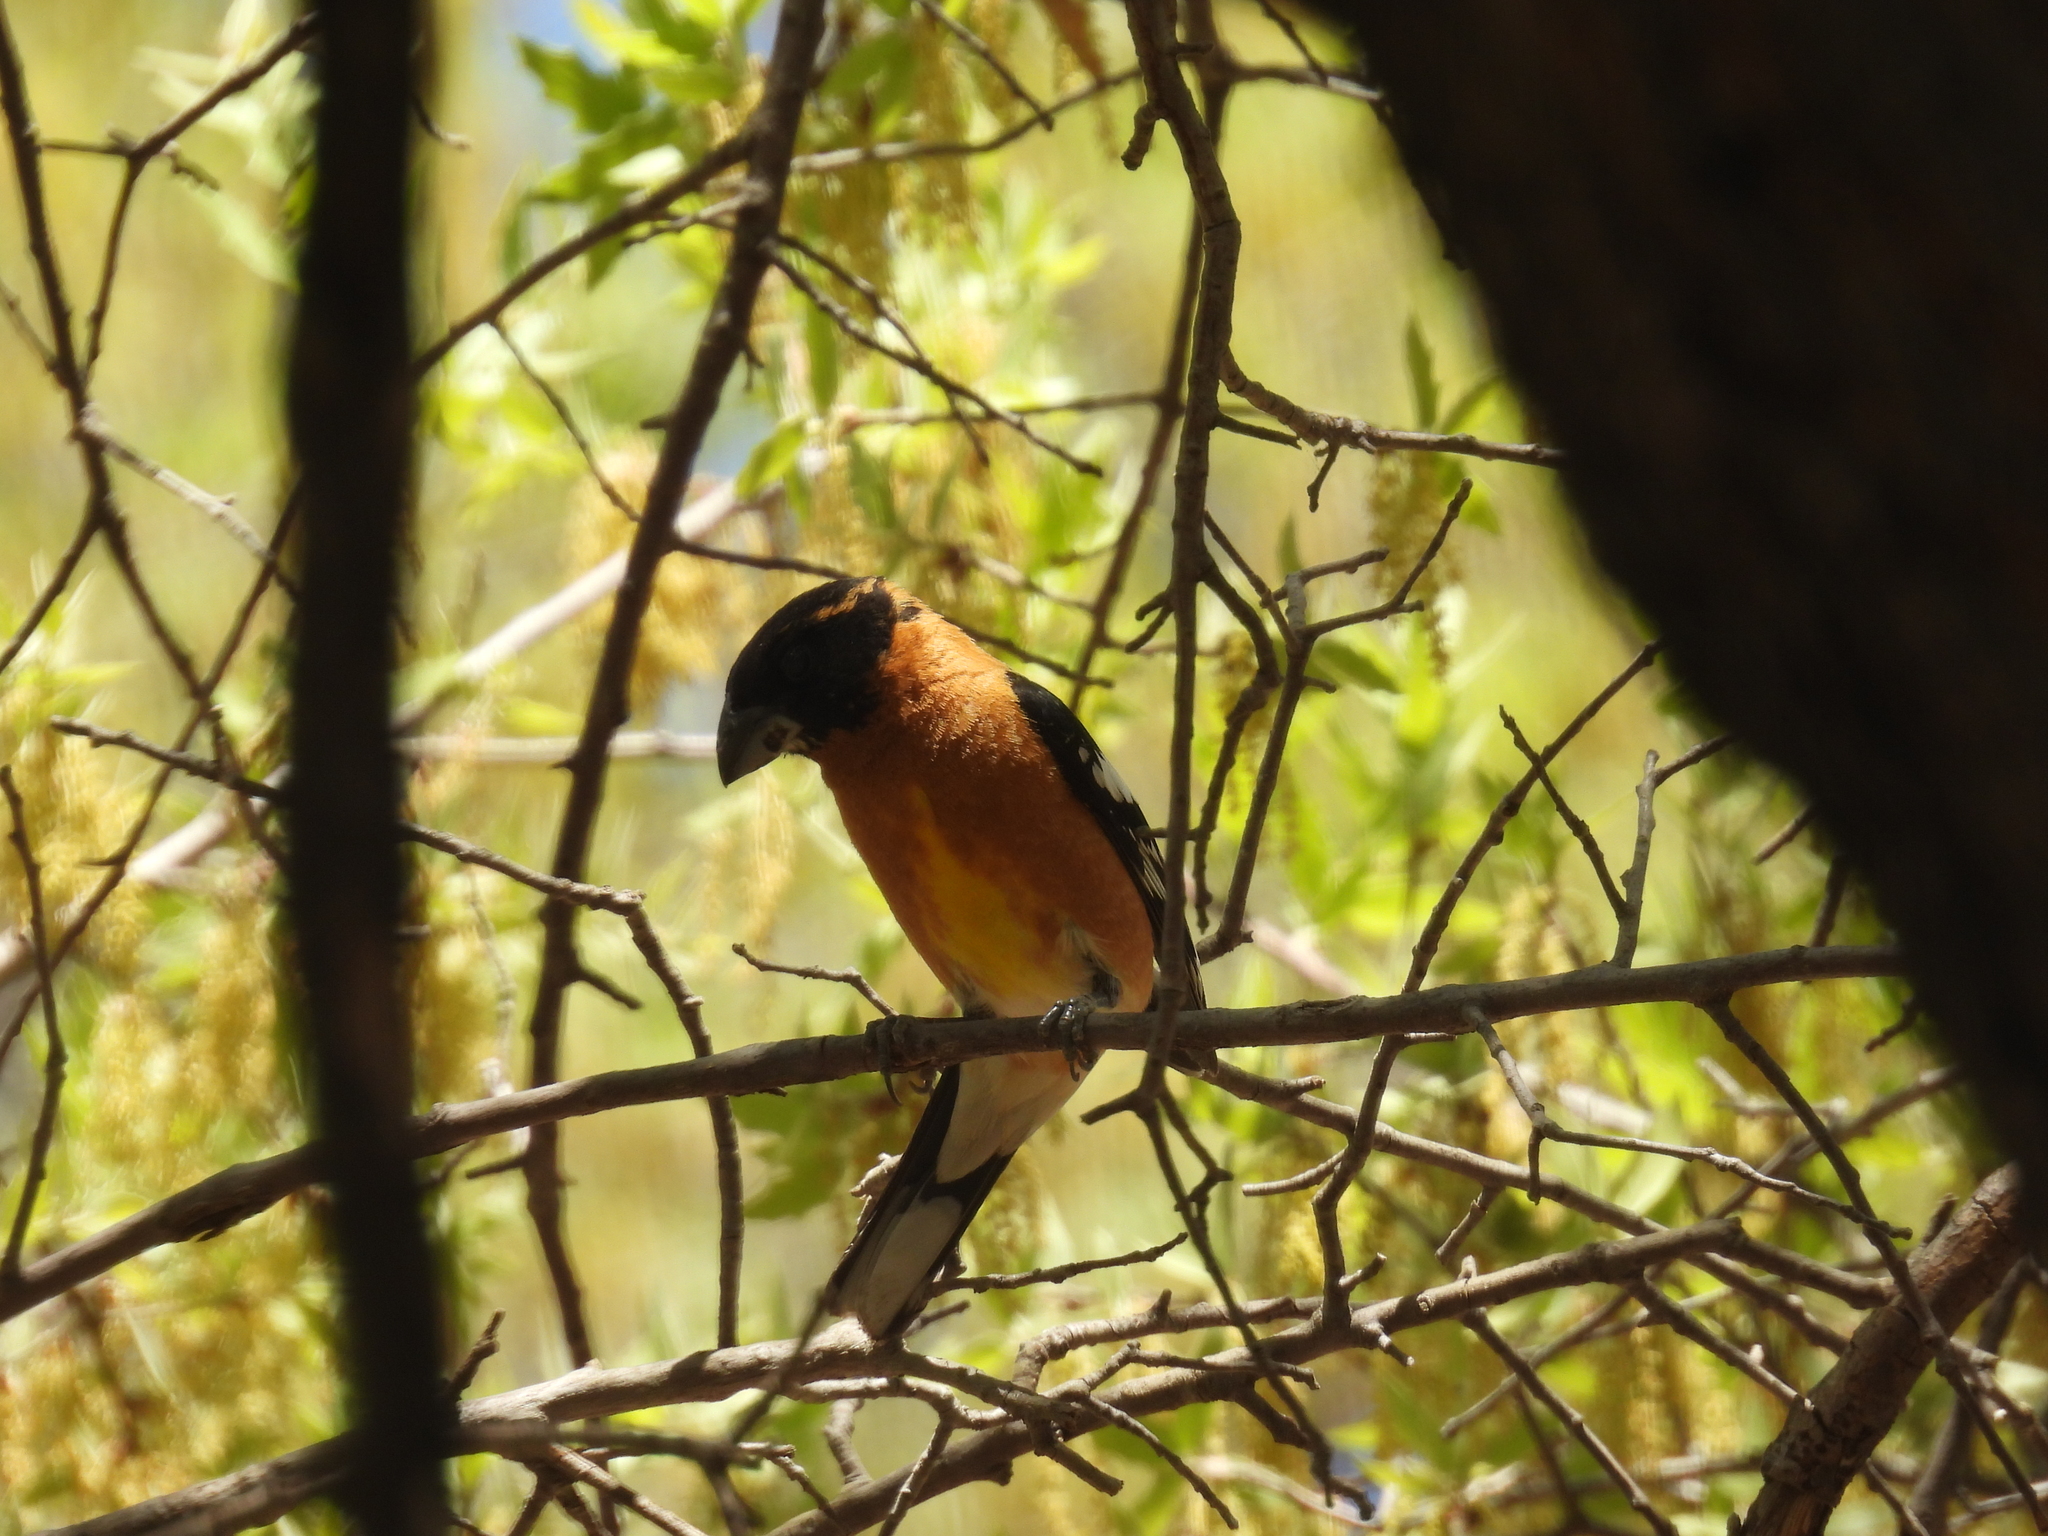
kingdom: Animalia
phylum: Chordata
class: Aves
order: Passeriformes
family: Cardinalidae
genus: Pheucticus
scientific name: Pheucticus melanocephalus
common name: Black-headed grosbeak
